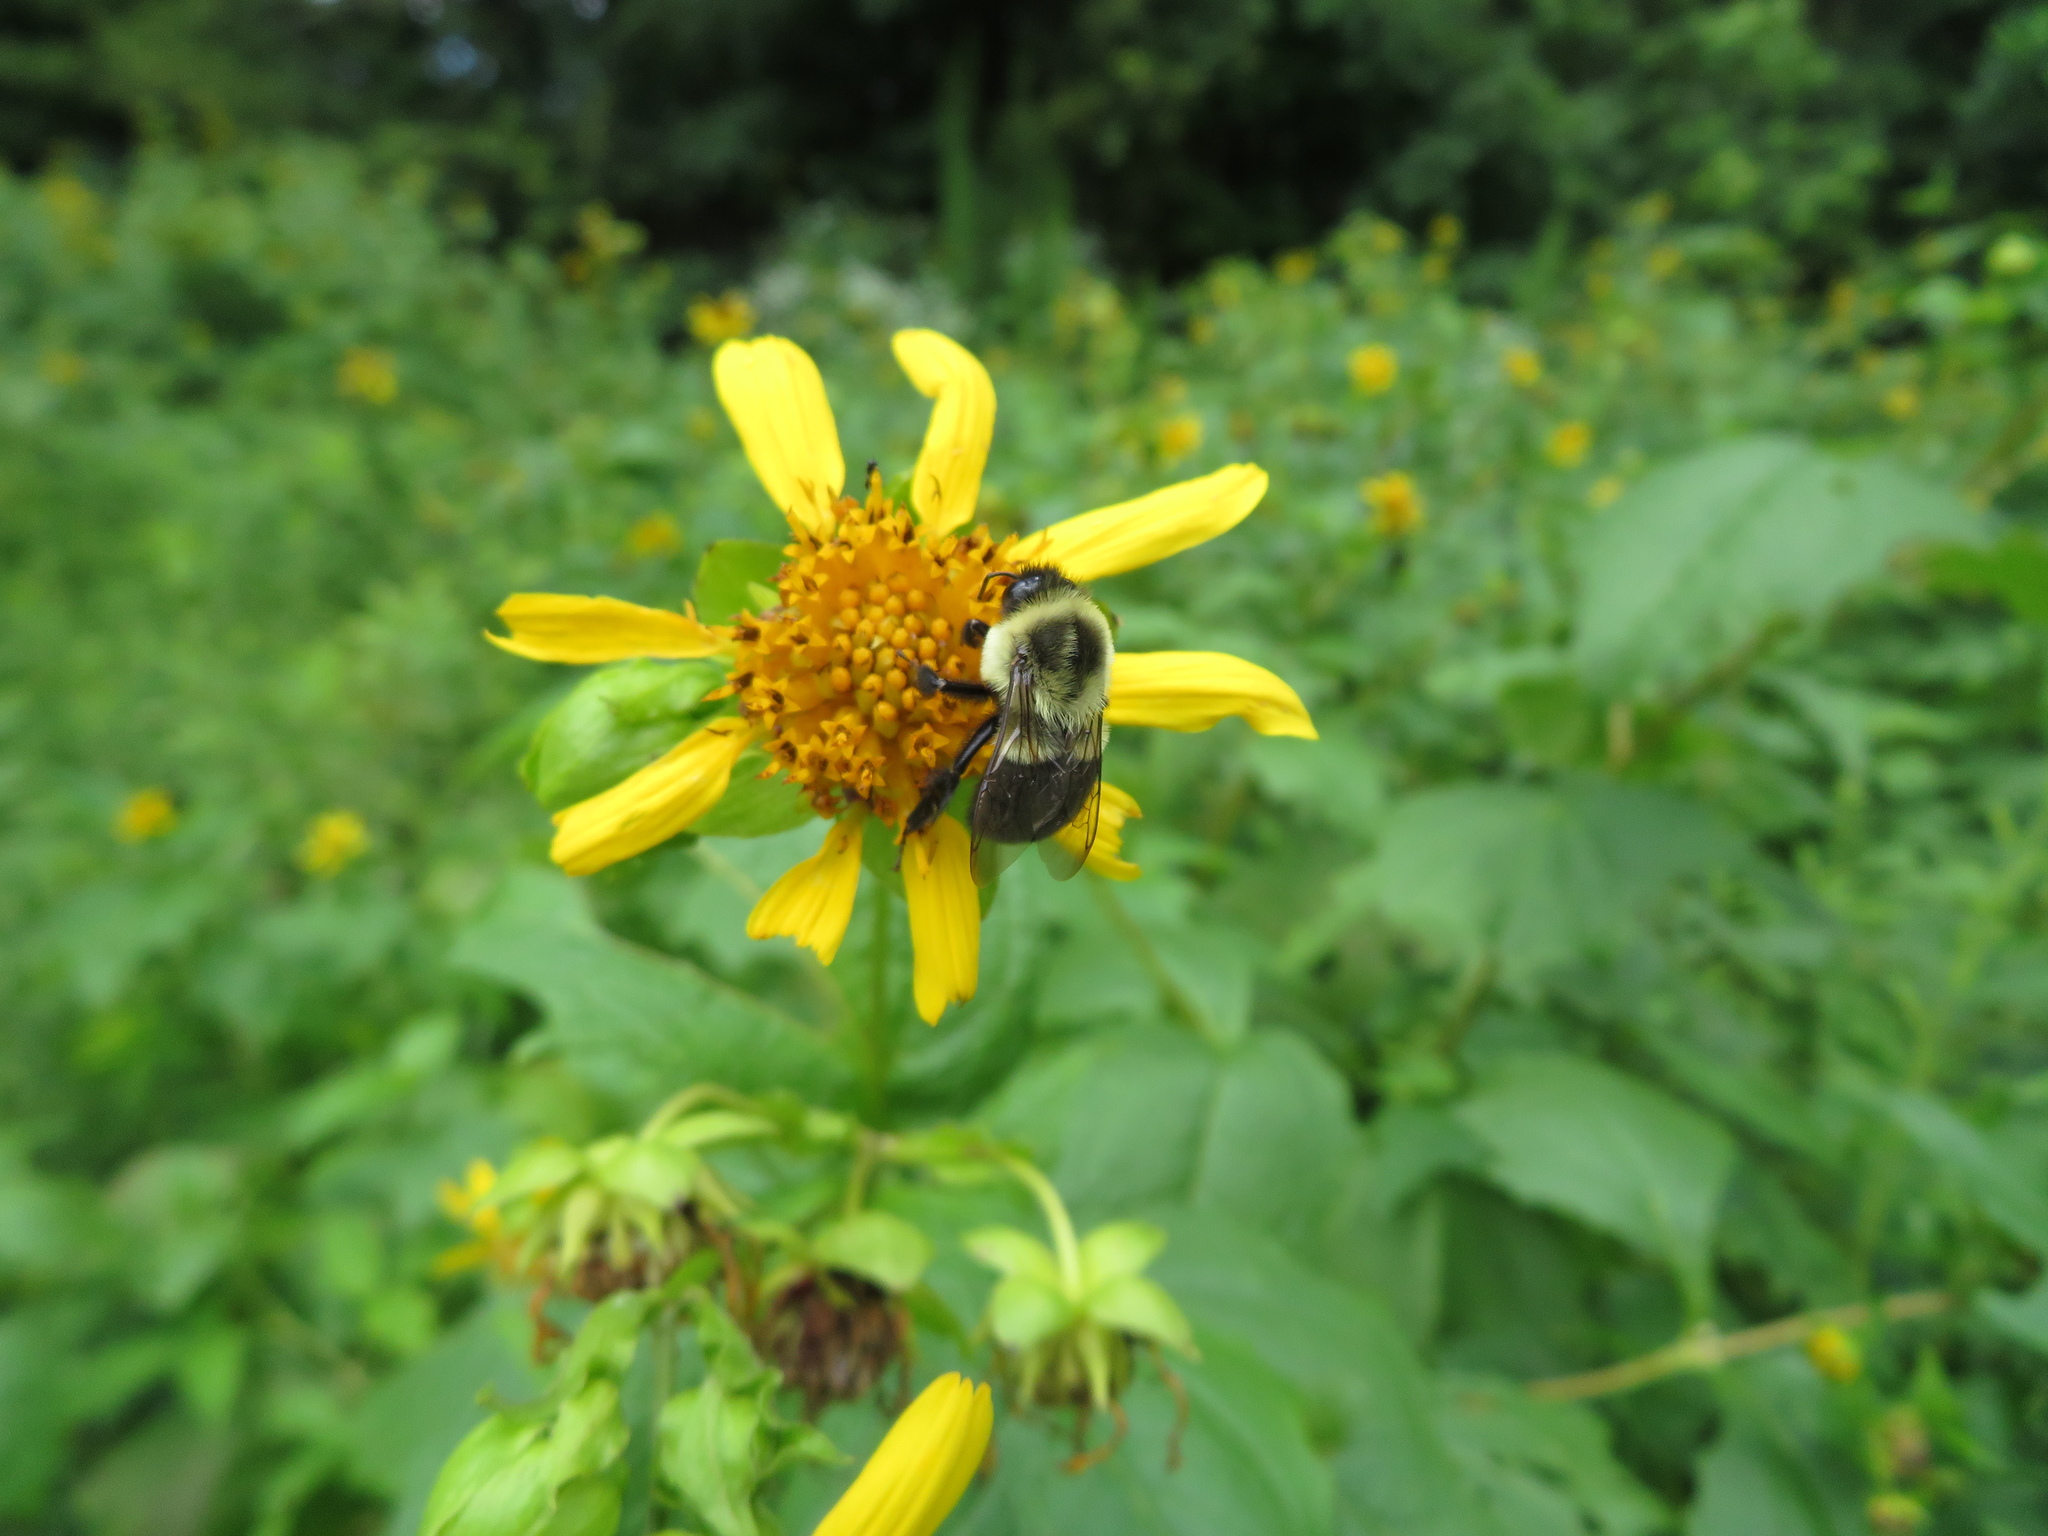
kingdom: Animalia
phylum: Arthropoda
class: Insecta
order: Hymenoptera
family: Apidae
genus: Bombus
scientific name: Bombus impatiens
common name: Common eastern bumble bee
